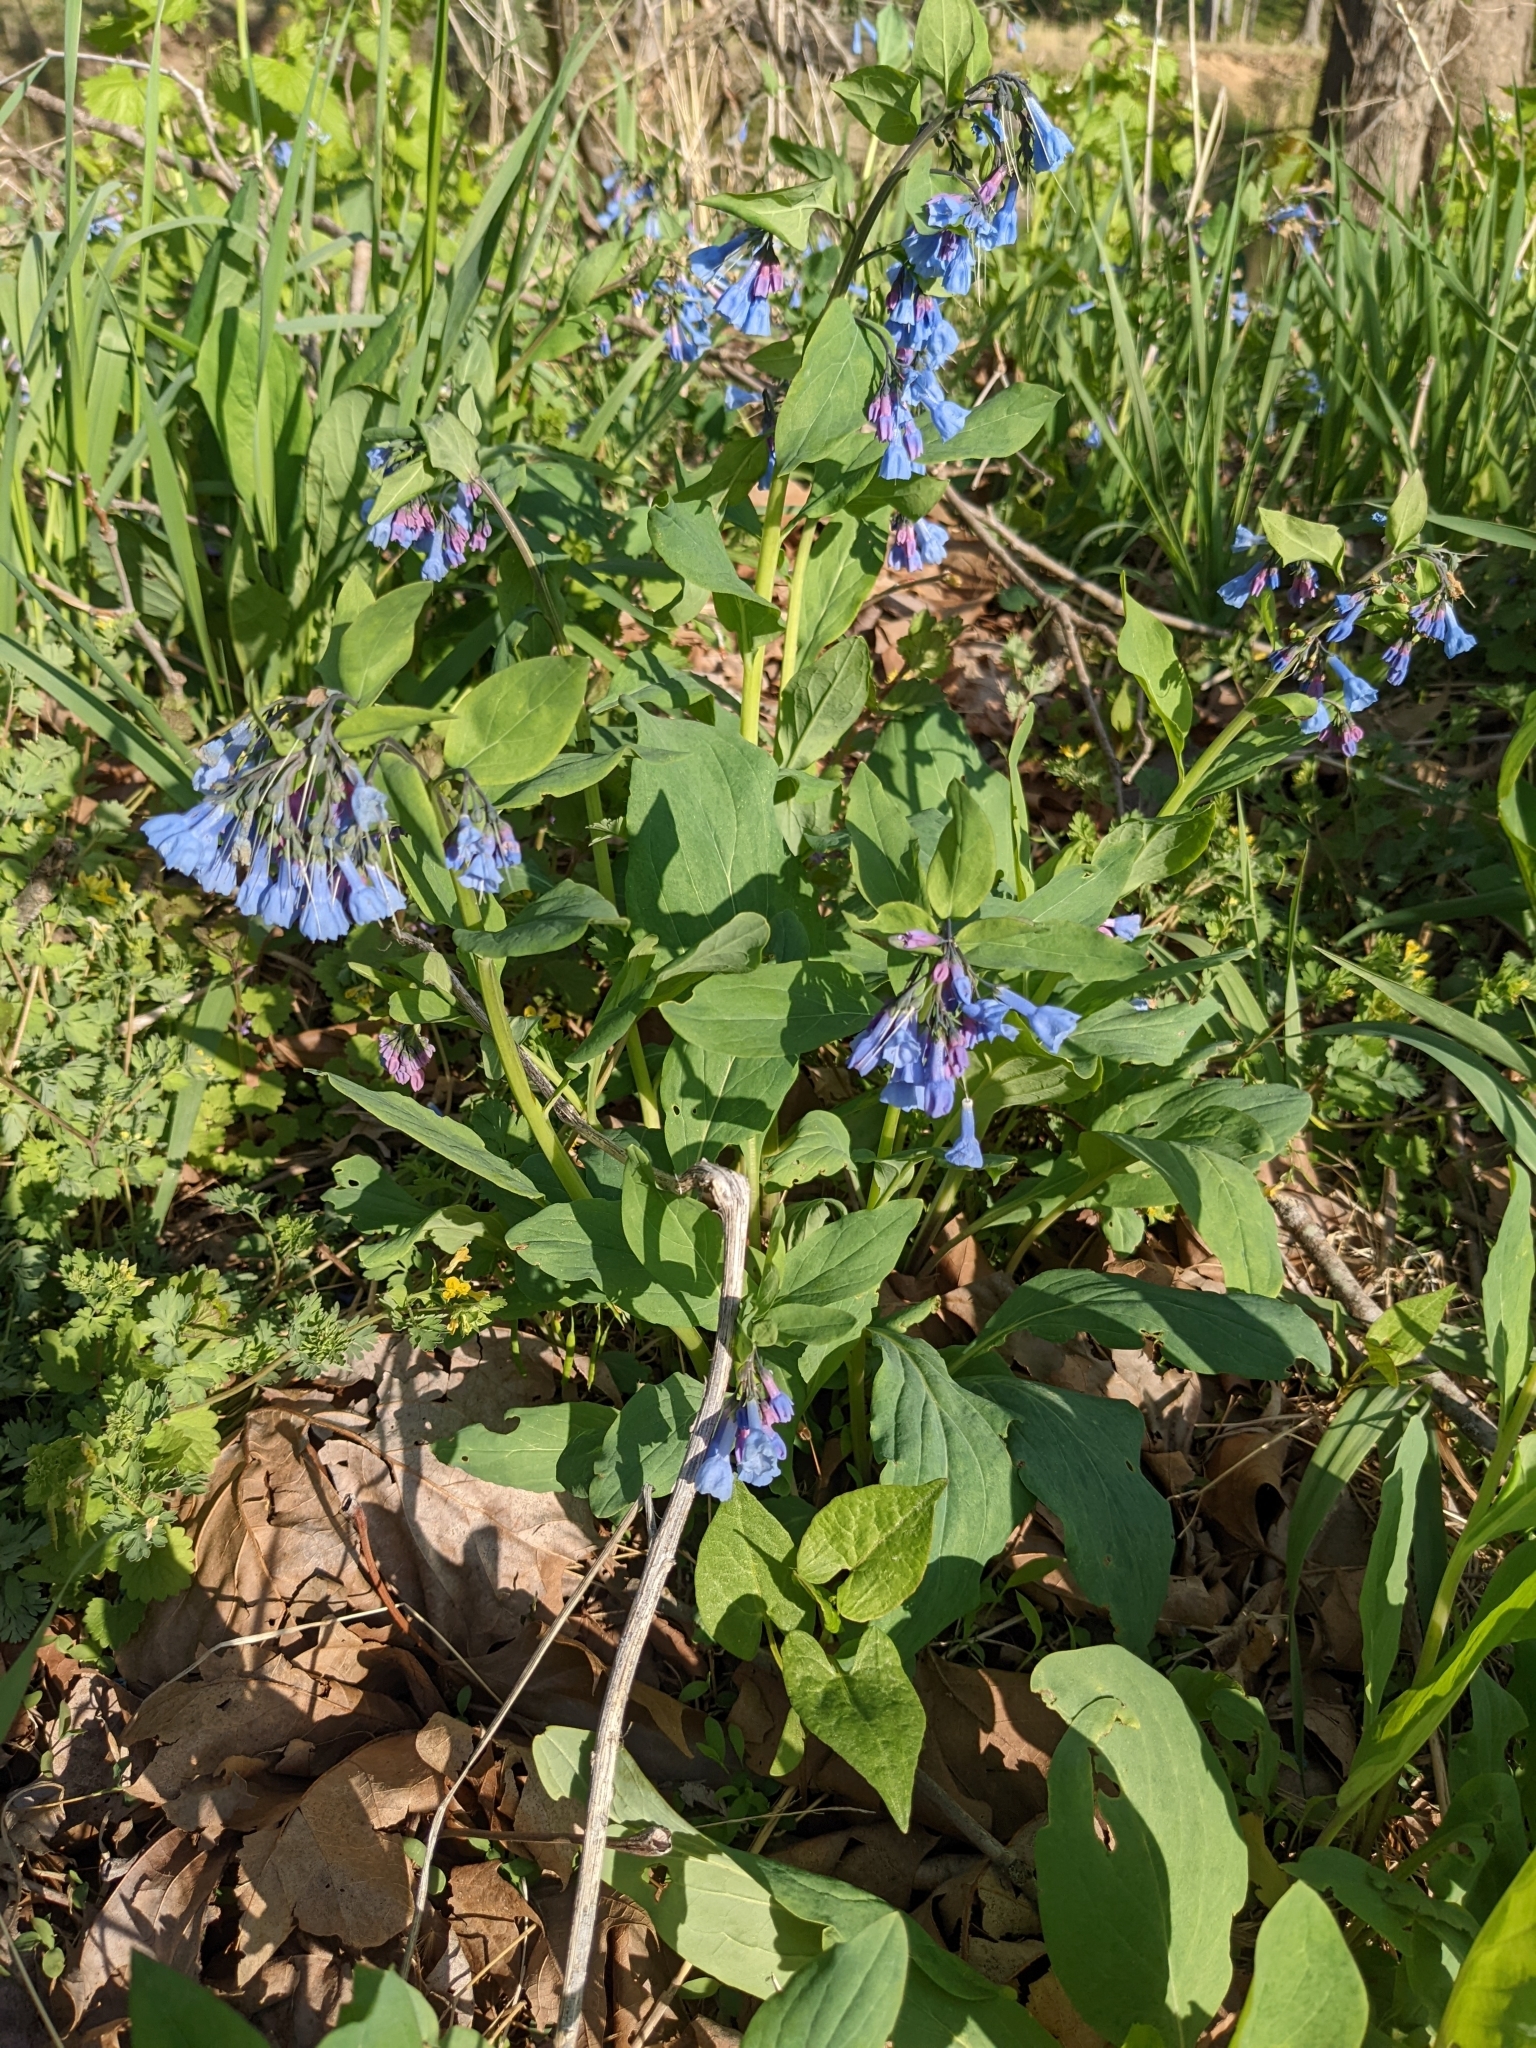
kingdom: Plantae
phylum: Tracheophyta
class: Magnoliopsida
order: Boraginales
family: Boraginaceae
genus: Mertensia
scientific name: Mertensia virginica
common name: Virginia bluebells
